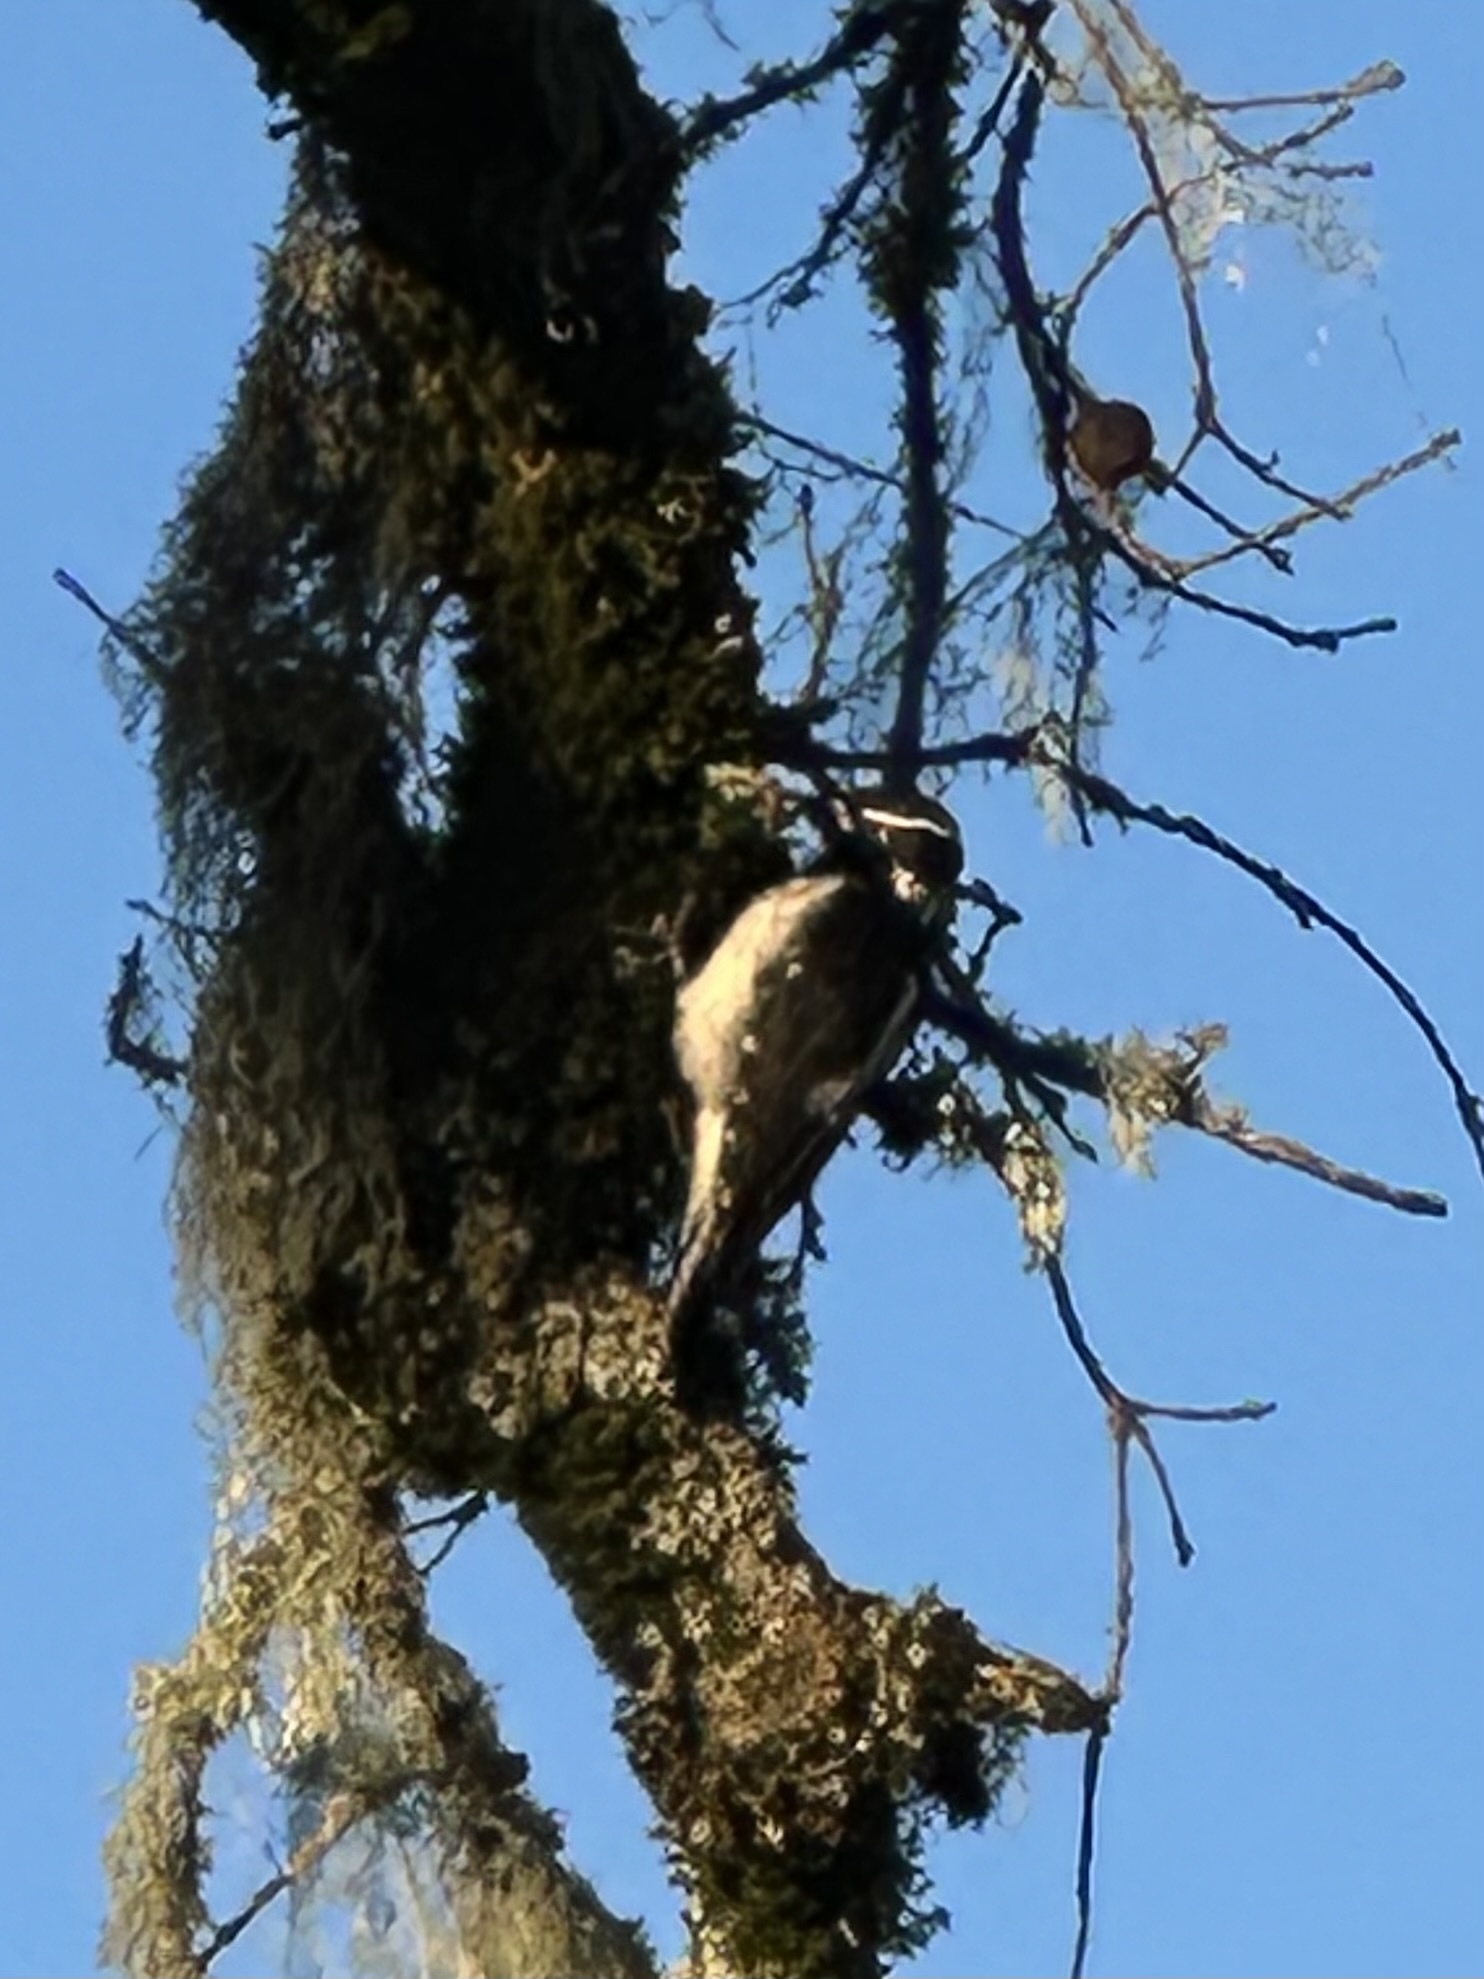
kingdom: Animalia
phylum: Chordata
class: Aves
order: Piciformes
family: Picidae
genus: Dryobates
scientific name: Dryobates pubescens
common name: Downy woodpecker
